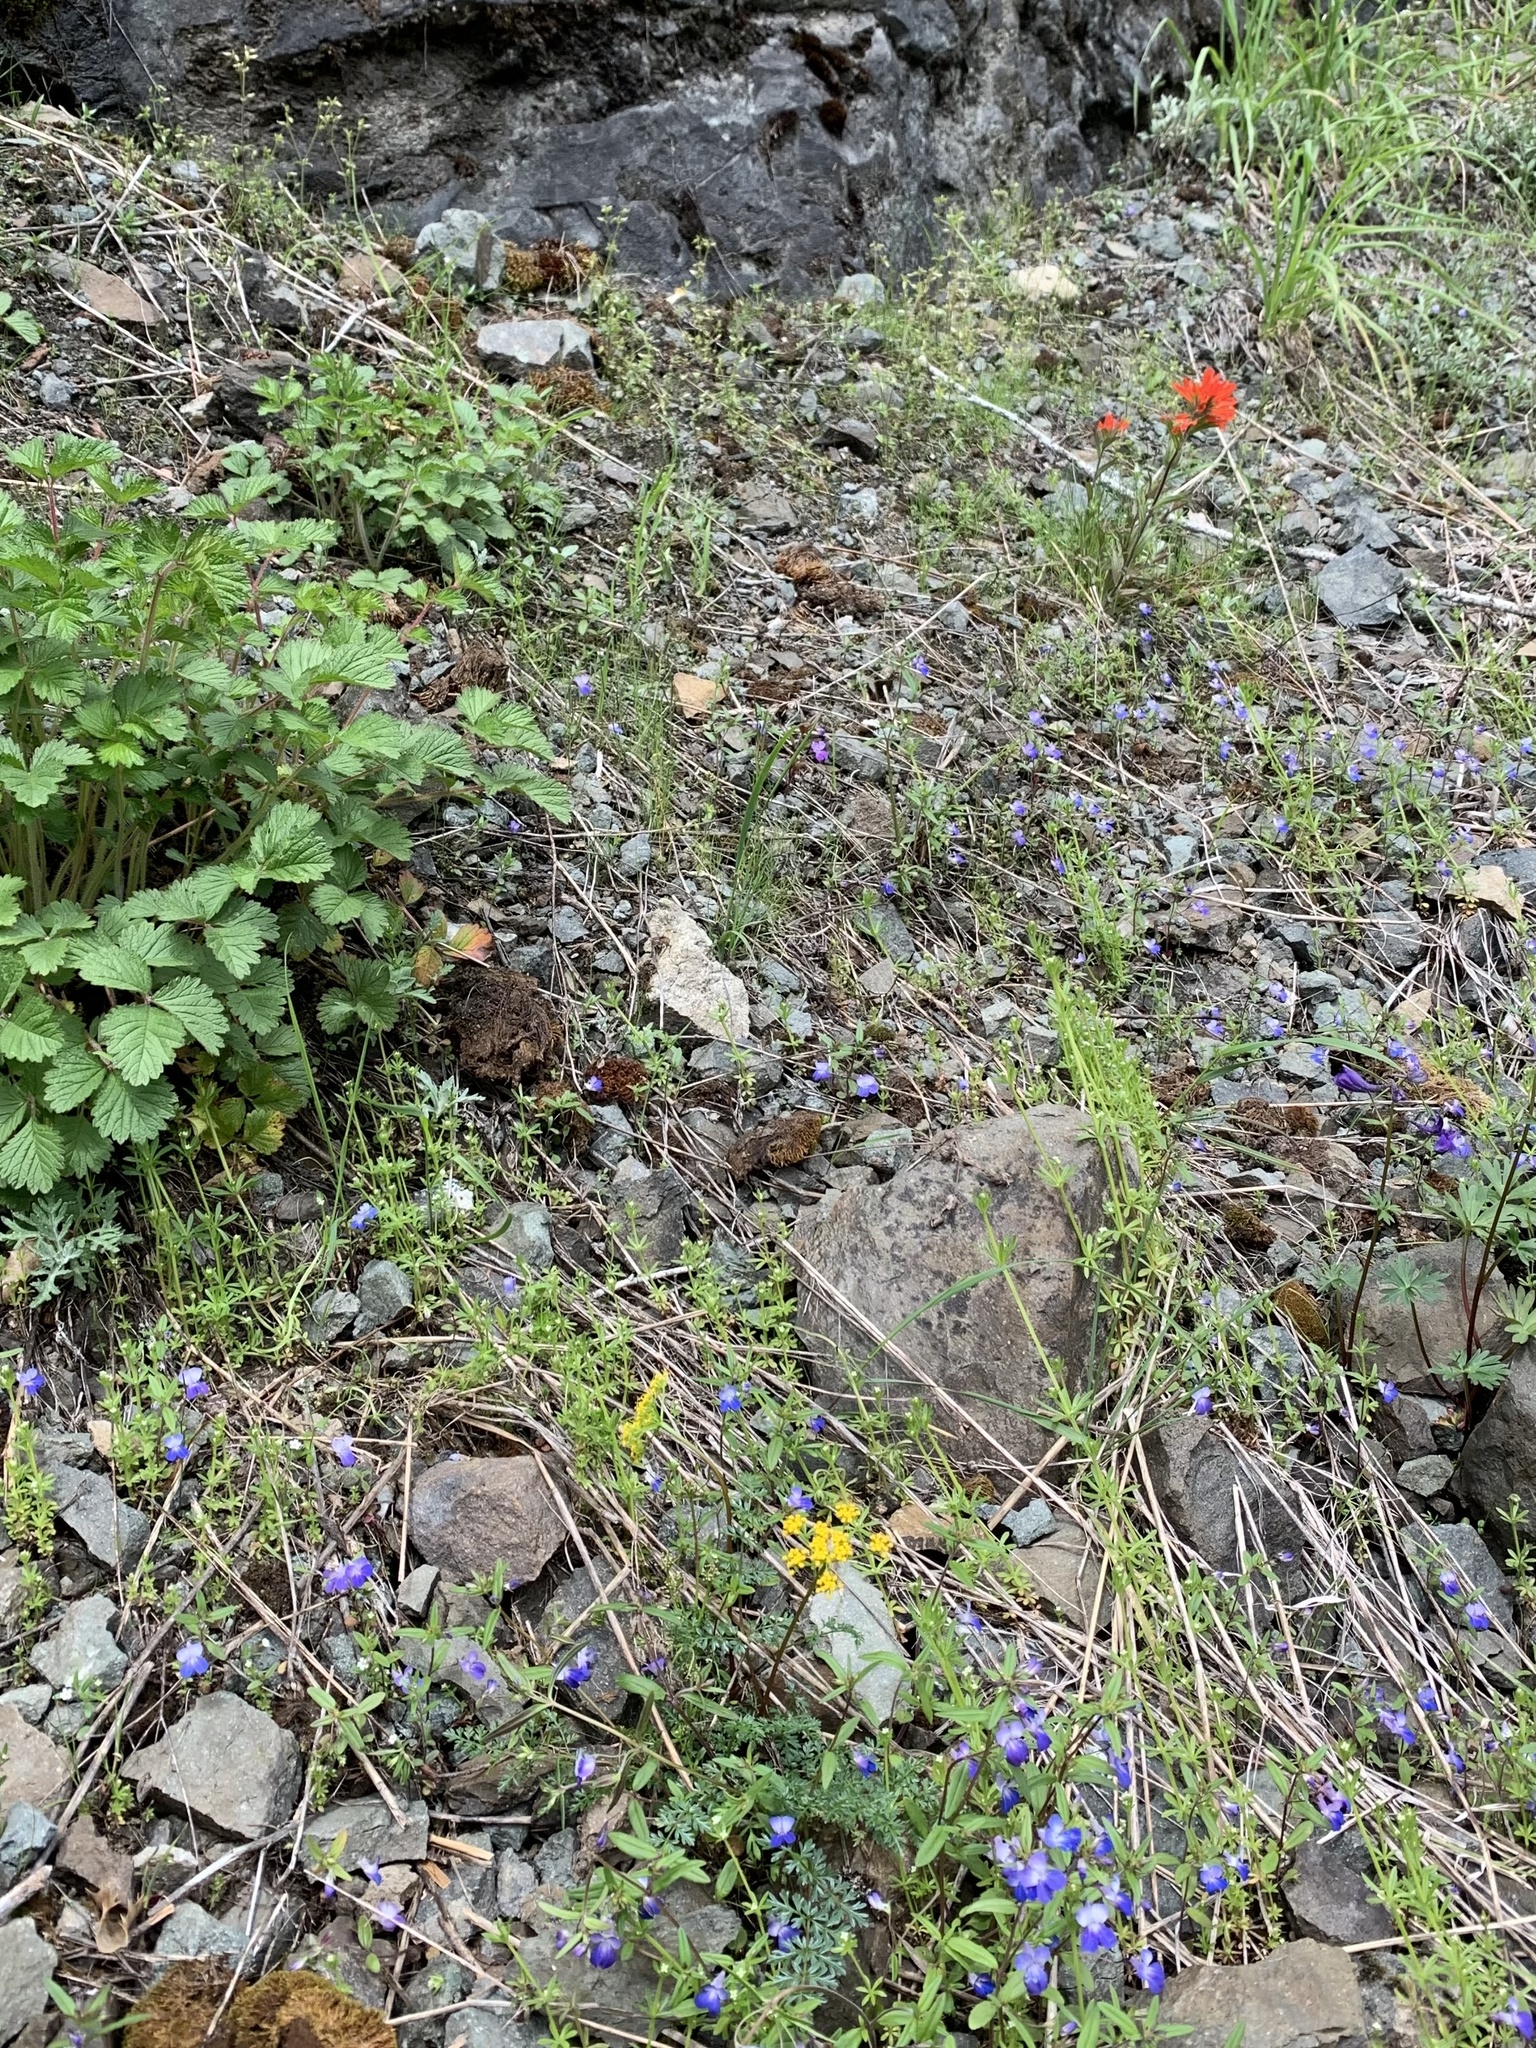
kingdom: Plantae
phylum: Tracheophyta
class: Magnoliopsida
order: Apiales
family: Apiaceae
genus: Lomatium
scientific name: Lomatium hallii
